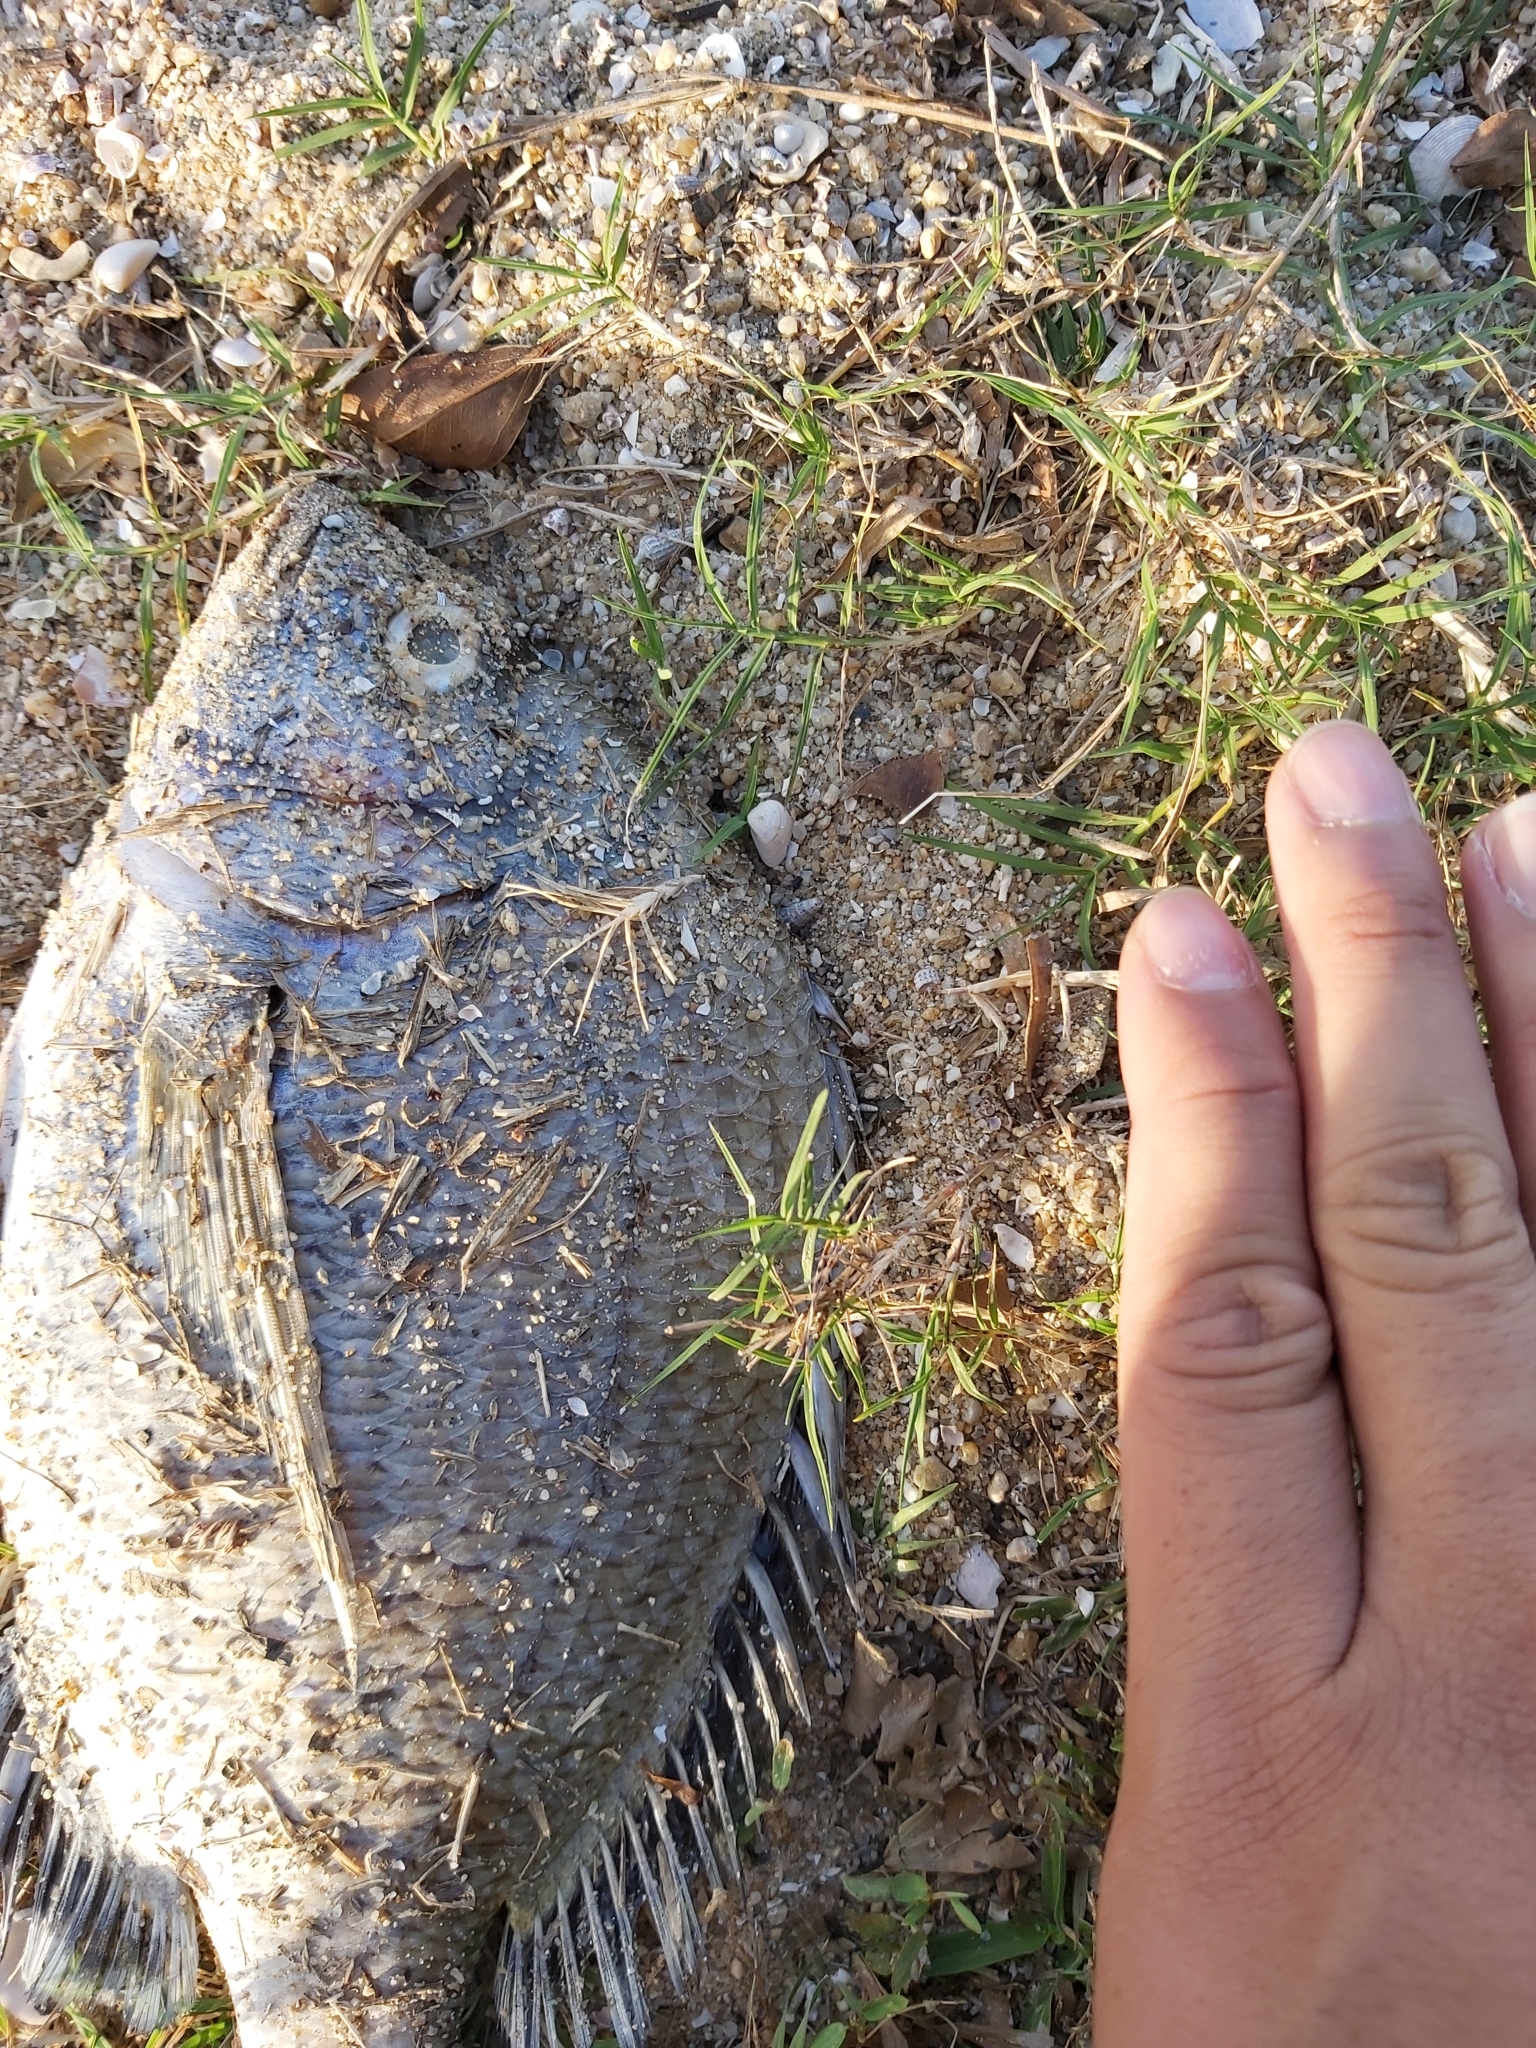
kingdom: Animalia
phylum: Chordata
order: Perciformes
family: Sparidae
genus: Acanthopagrus
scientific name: Acanthopagrus pacificus
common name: Pacific seabream
